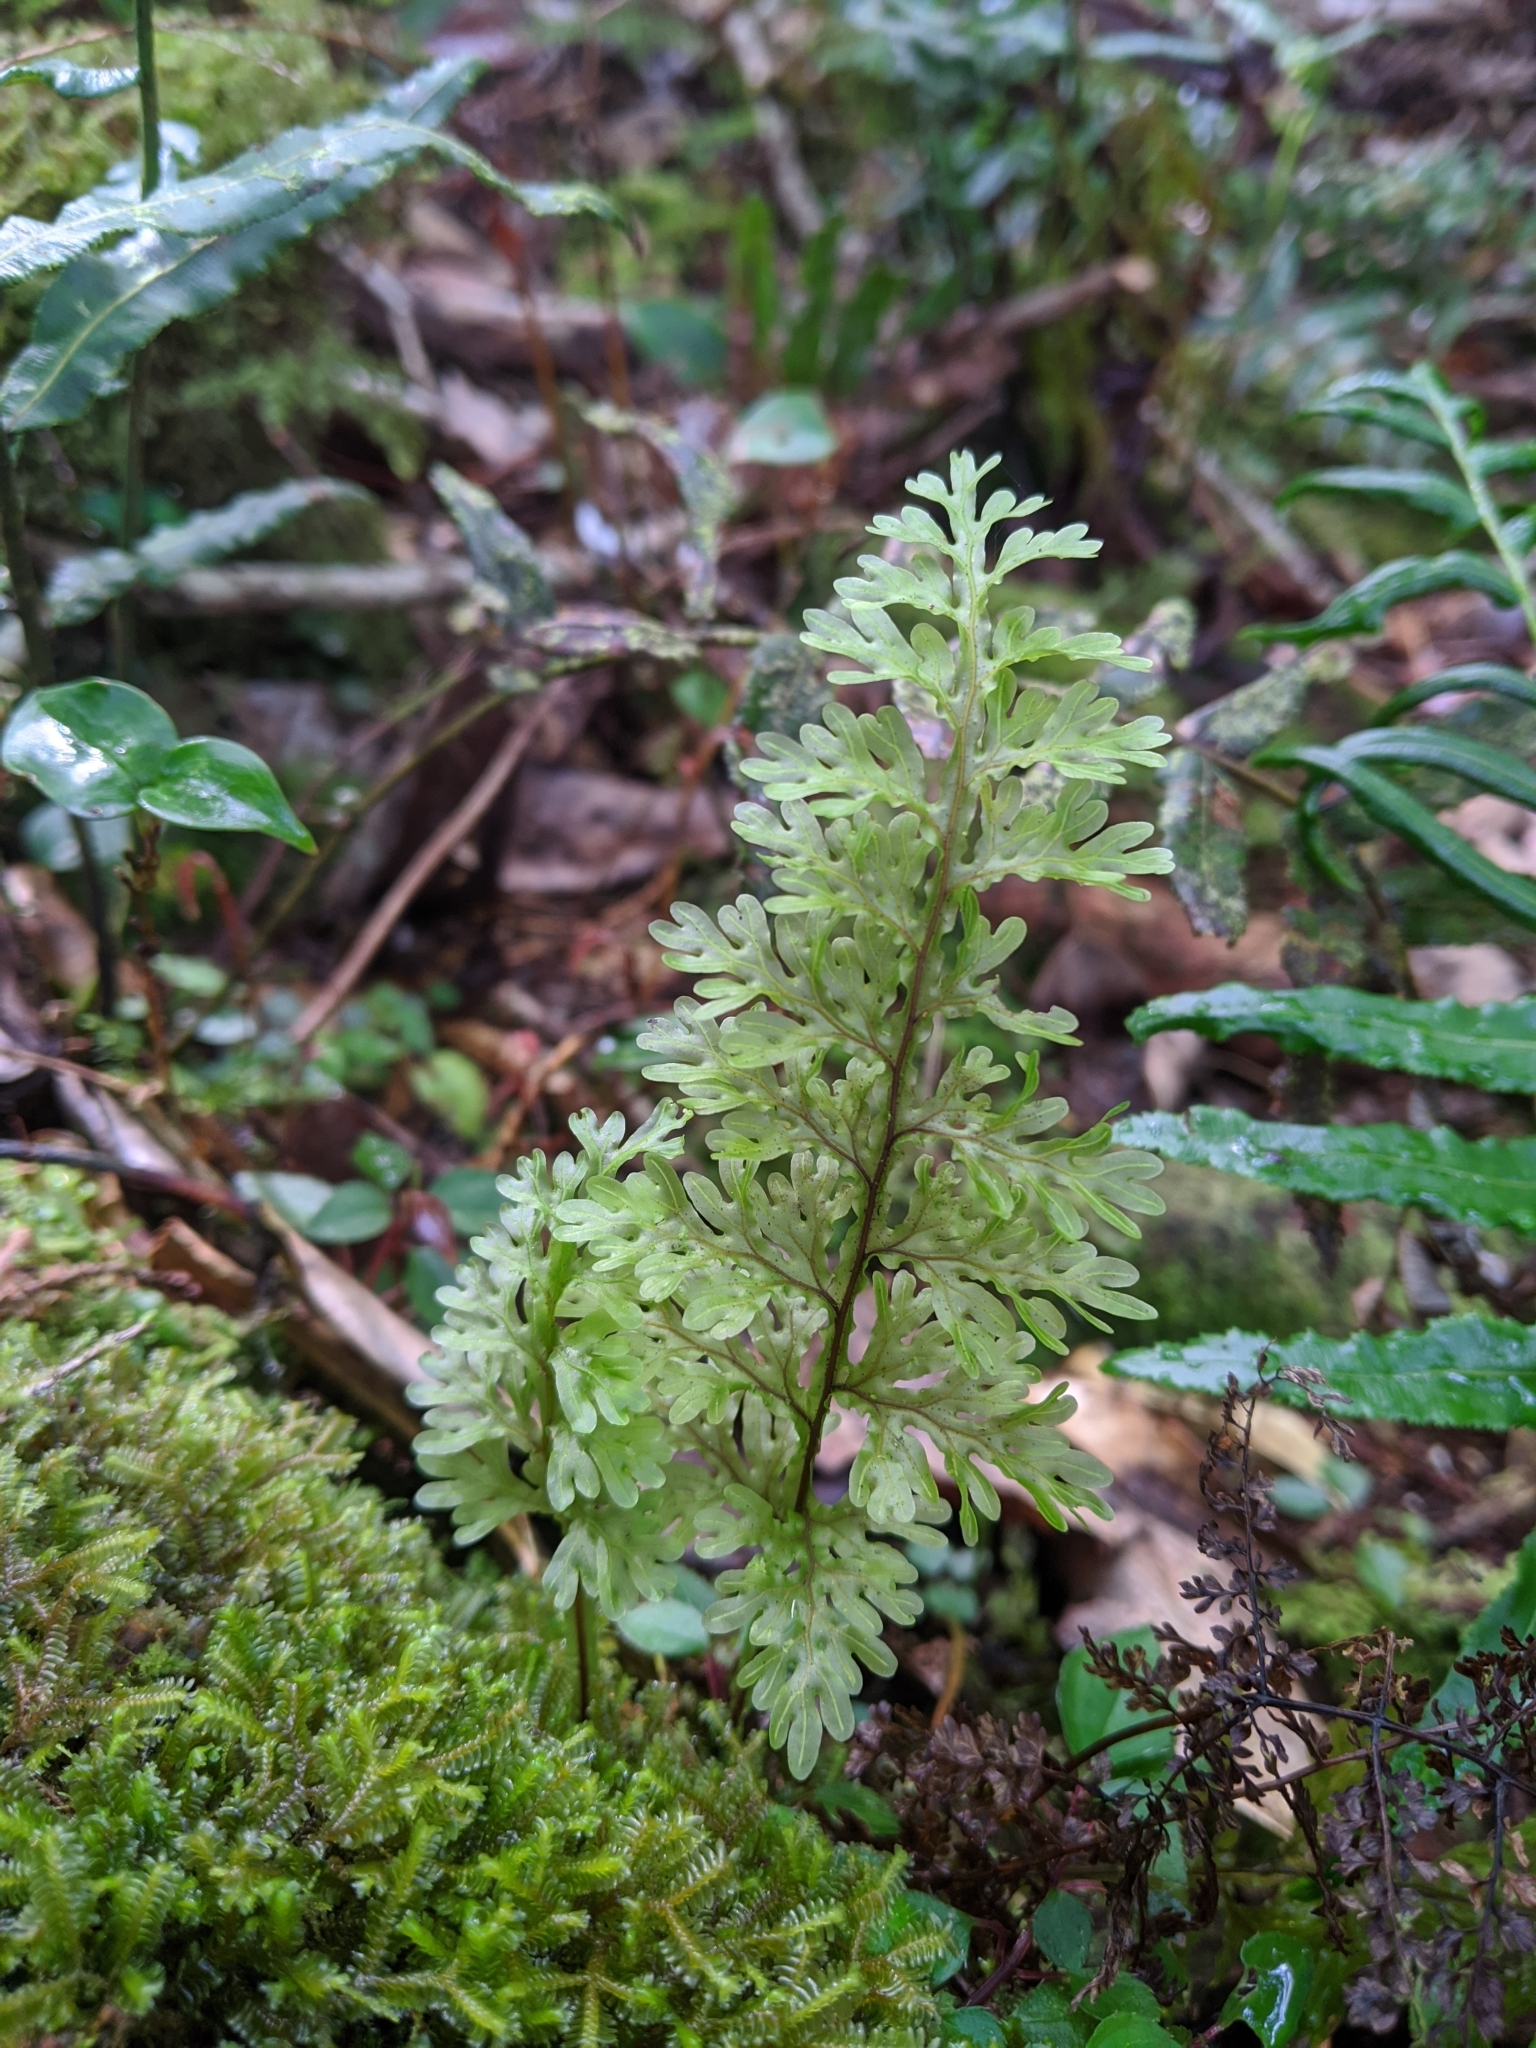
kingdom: Plantae
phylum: Tracheophyta
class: Polypodiopsida
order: Hymenophyllales
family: Hymenophyllaceae
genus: Hymenophyllum
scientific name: Hymenophyllum badium
